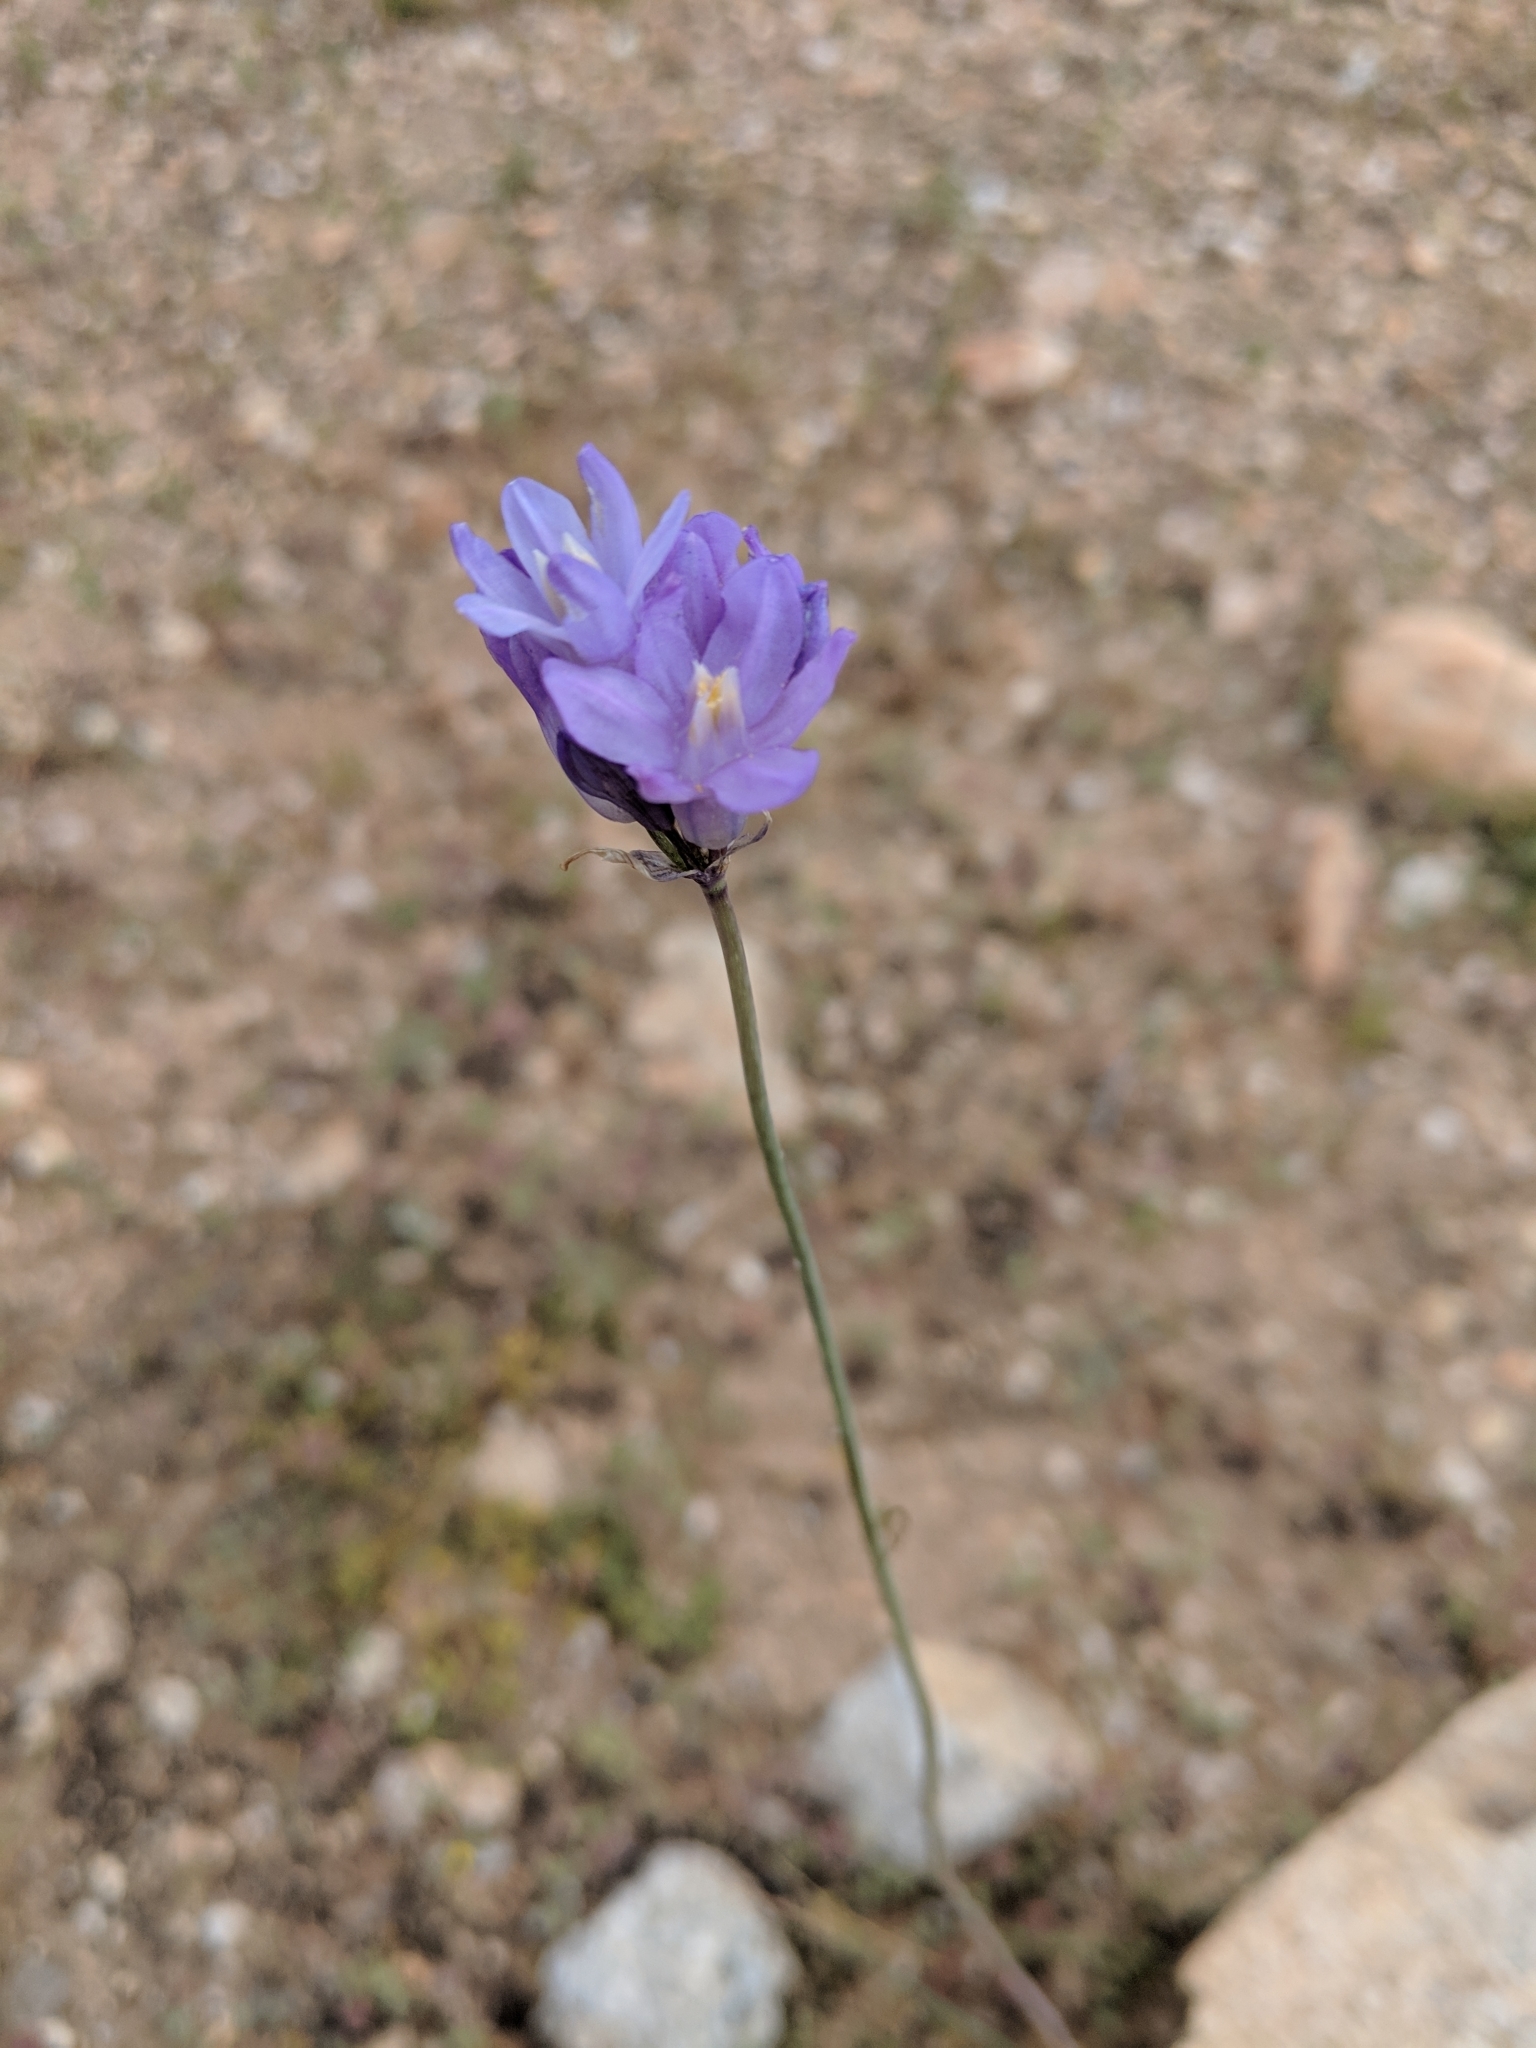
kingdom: Plantae
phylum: Tracheophyta
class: Liliopsida
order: Asparagales
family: Asparagaceae
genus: Dipterostemon
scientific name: Dipterostemon capitatus
